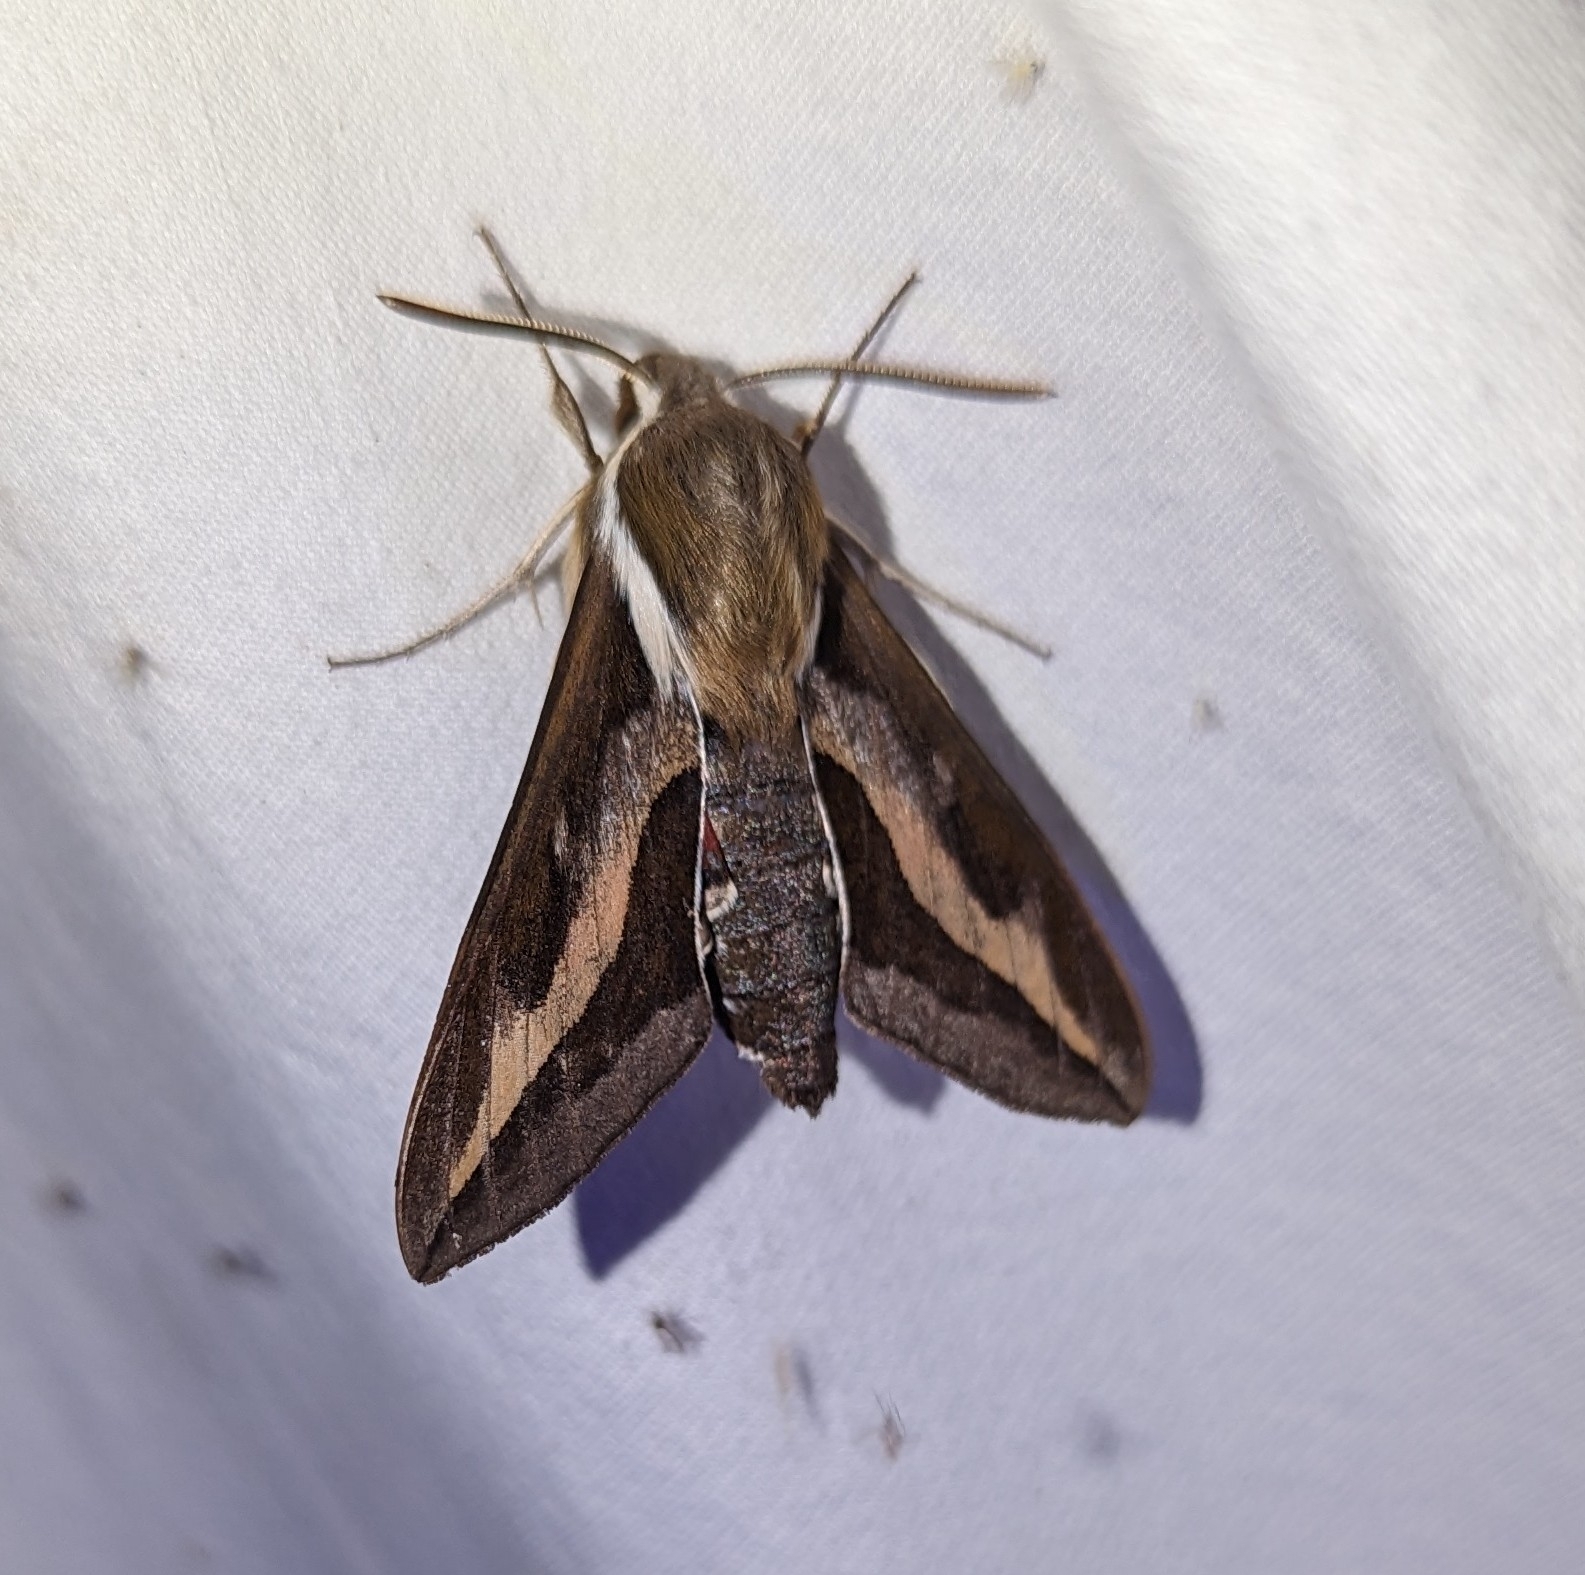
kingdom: Animalia
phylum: Arthropoda
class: Insecta
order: Lepidoptera
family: Sphingidae
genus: Hyles
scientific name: Hyles gallii
